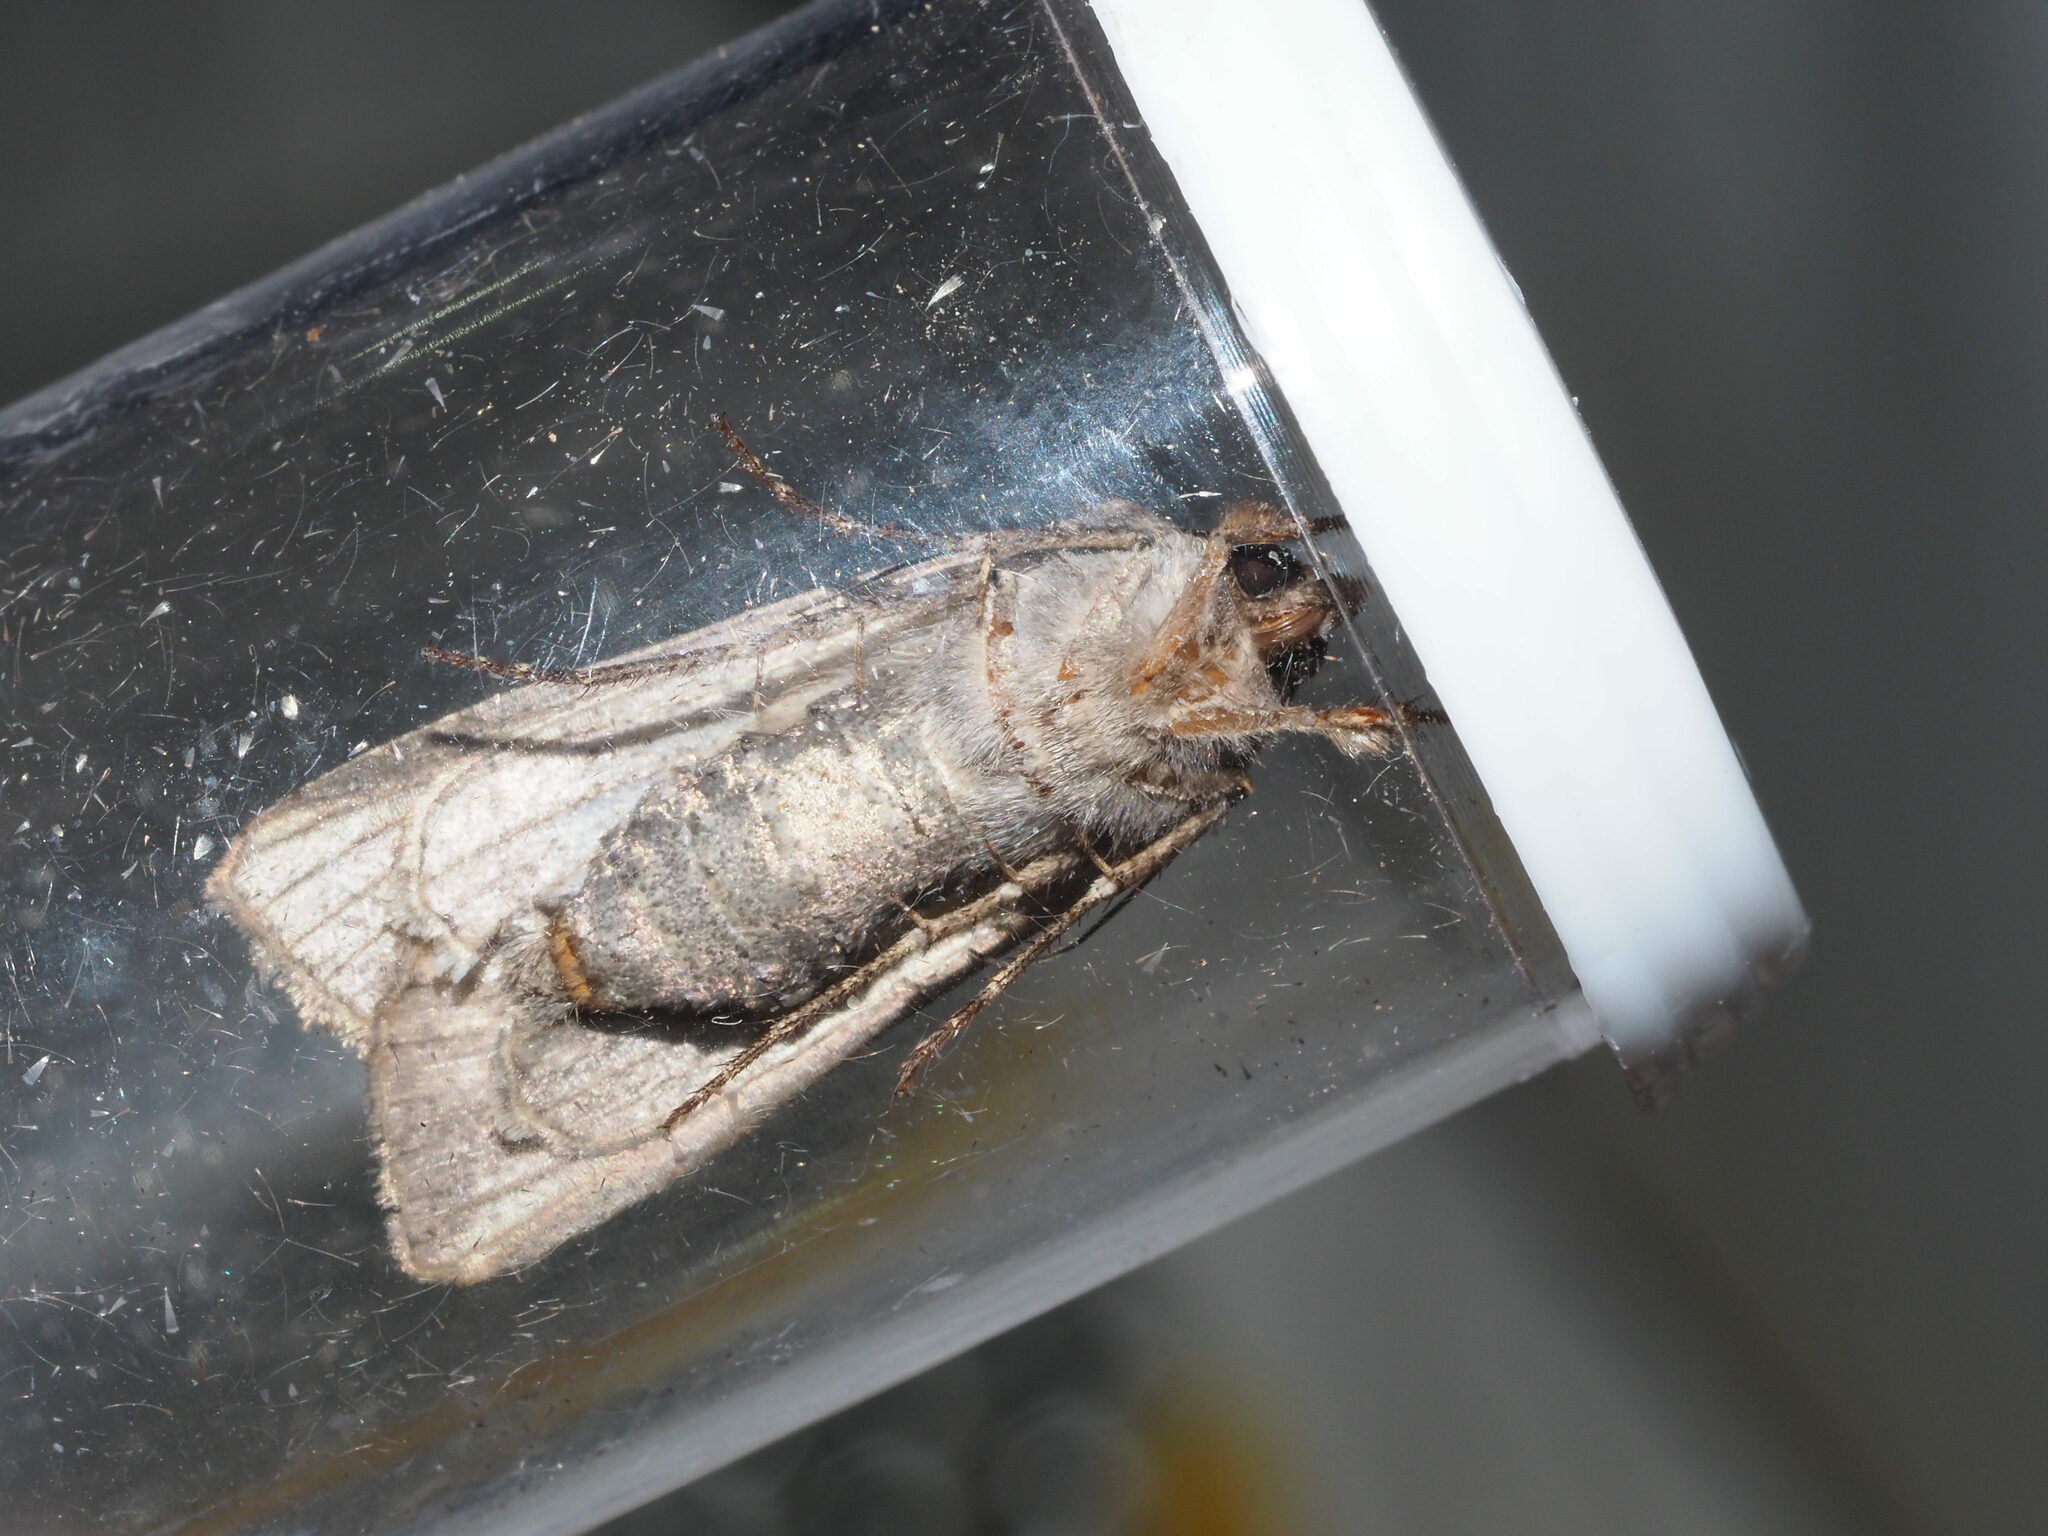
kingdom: Animalia
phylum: Arthropoda
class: Insecta
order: Lepidoptera
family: Noctuidae
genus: Peridroma
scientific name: Peridroma saucia
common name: Pearly underwing
